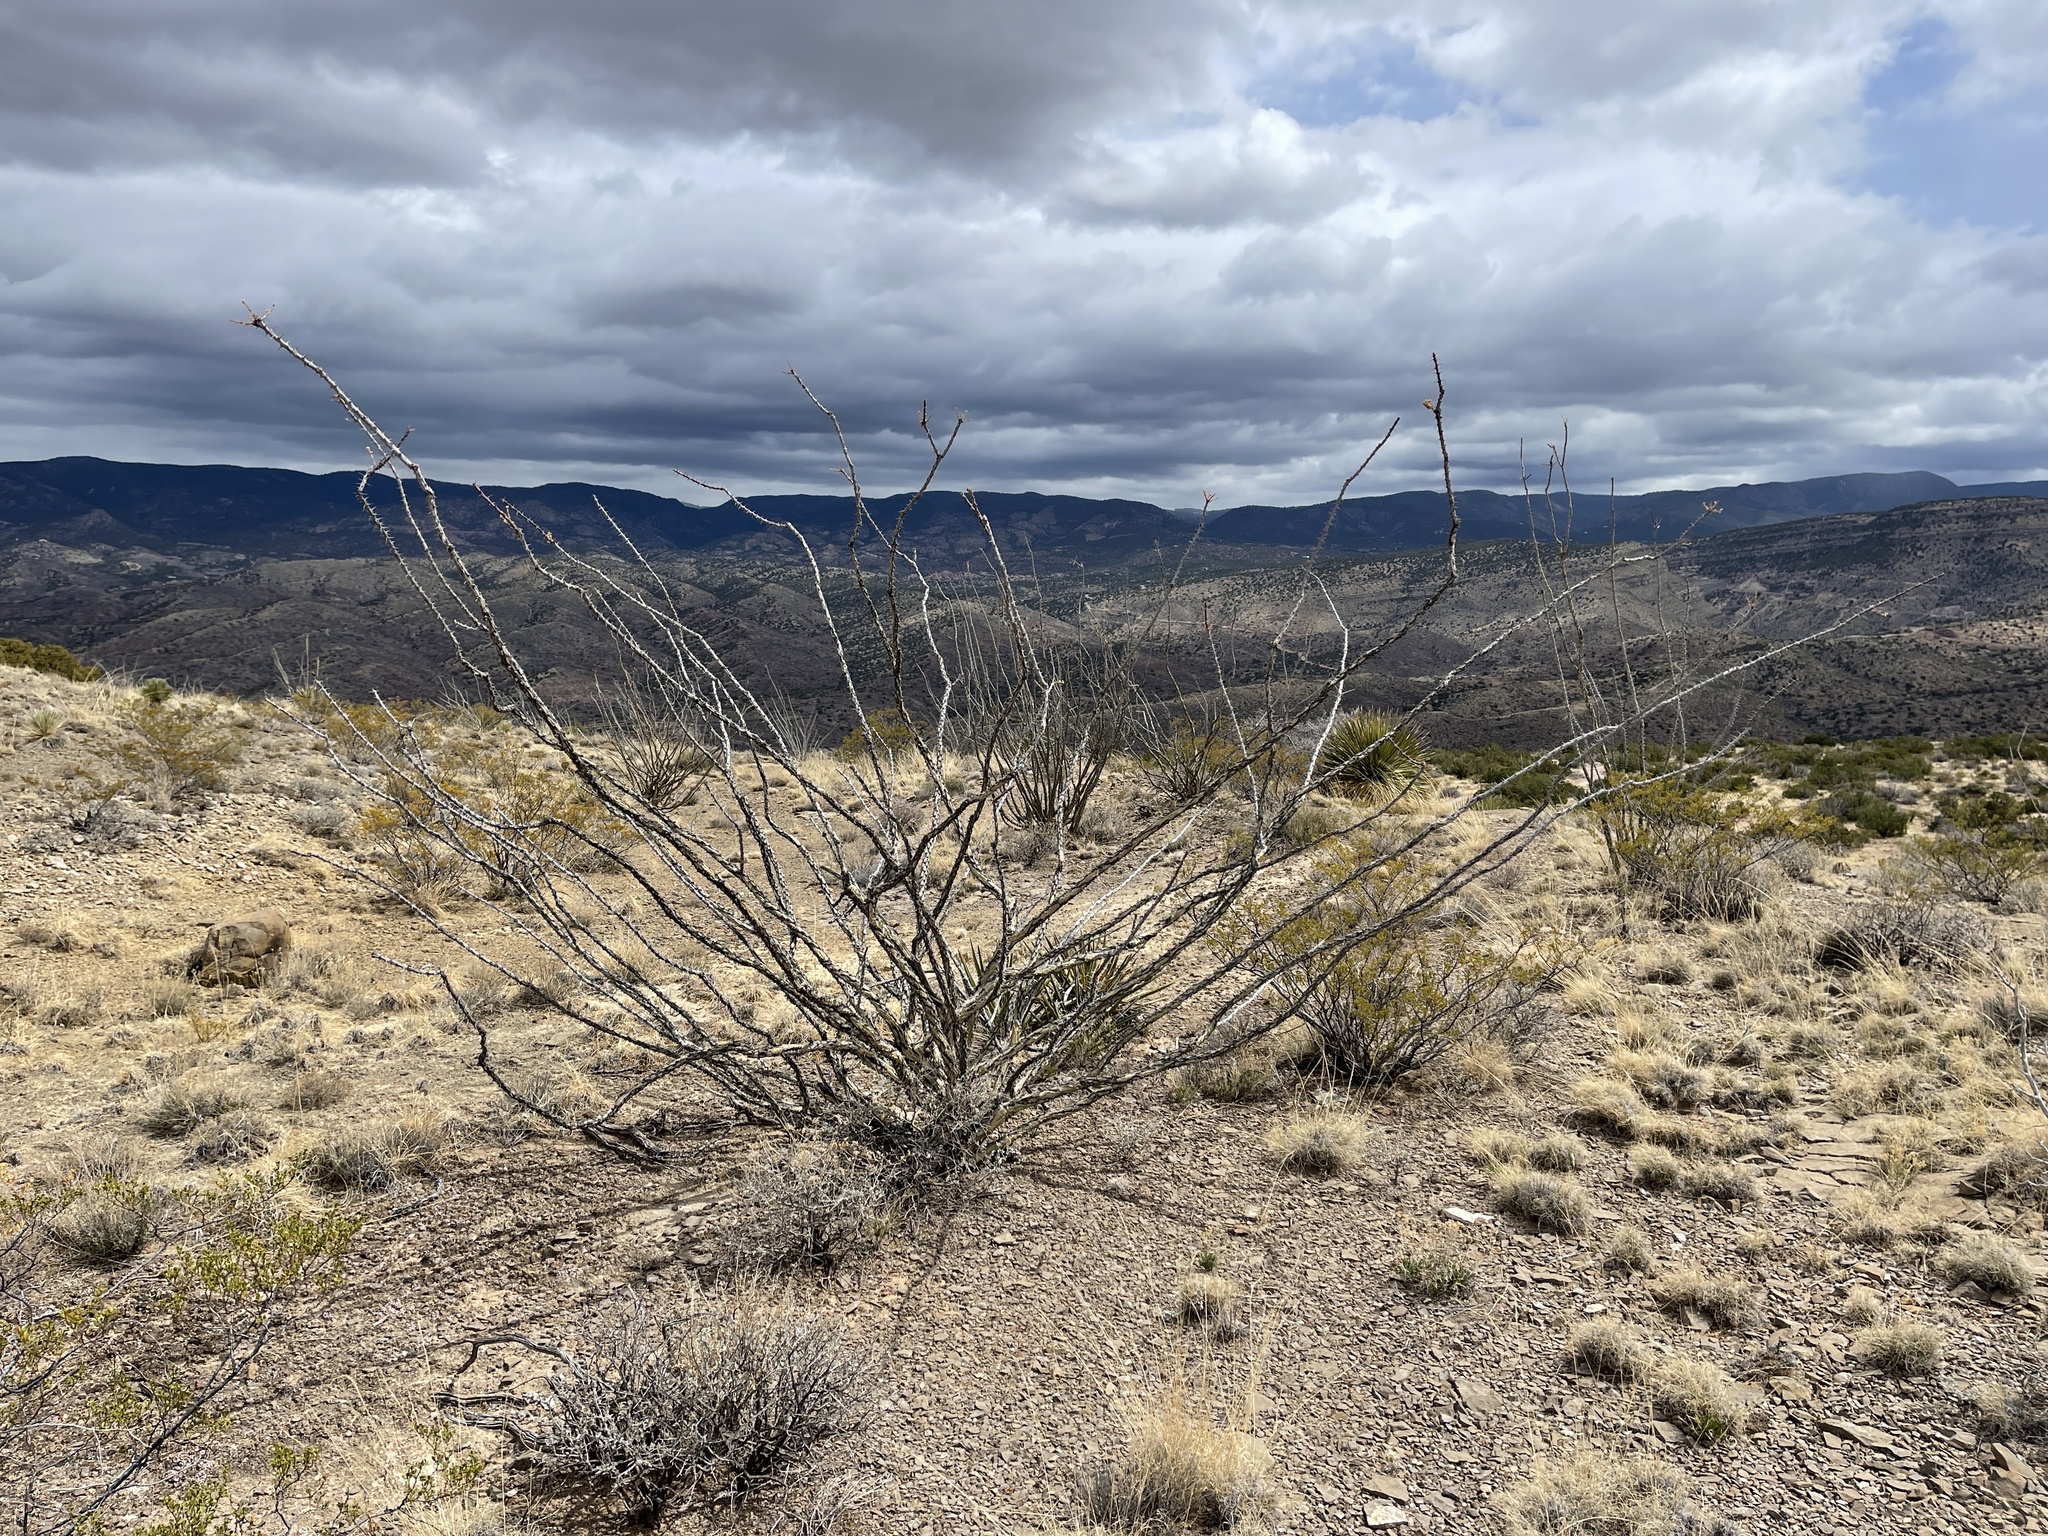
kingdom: Plantae
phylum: Tracheophyta
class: Magnoliopsida
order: Ericales
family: Fouquieriaceae
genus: Fouquieria
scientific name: Fouquieria splendens
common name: Vine-cactus
